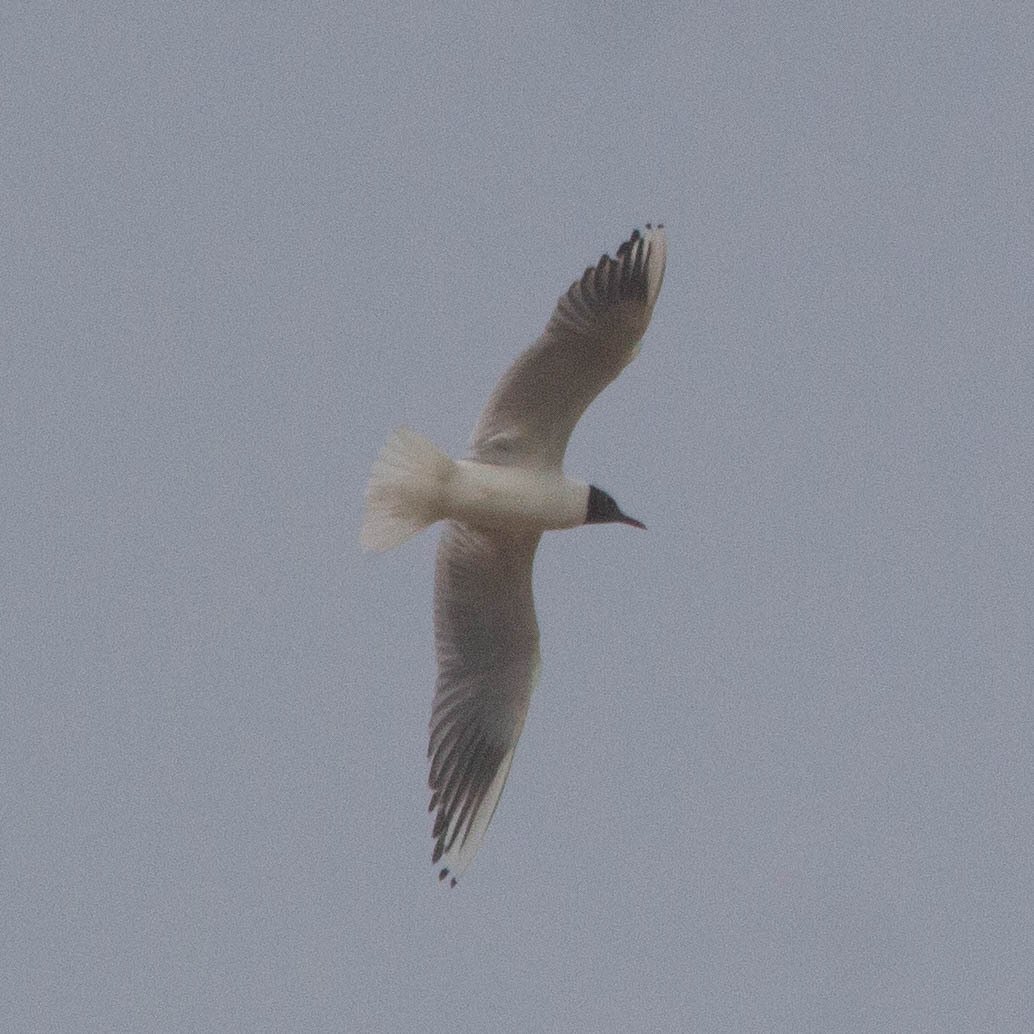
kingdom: Animalia
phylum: Chordata
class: Aves
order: Charadriiformes
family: Laridae
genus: Chroicocephalus
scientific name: Chroicocephalus ridibundus
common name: Black-headed gull
